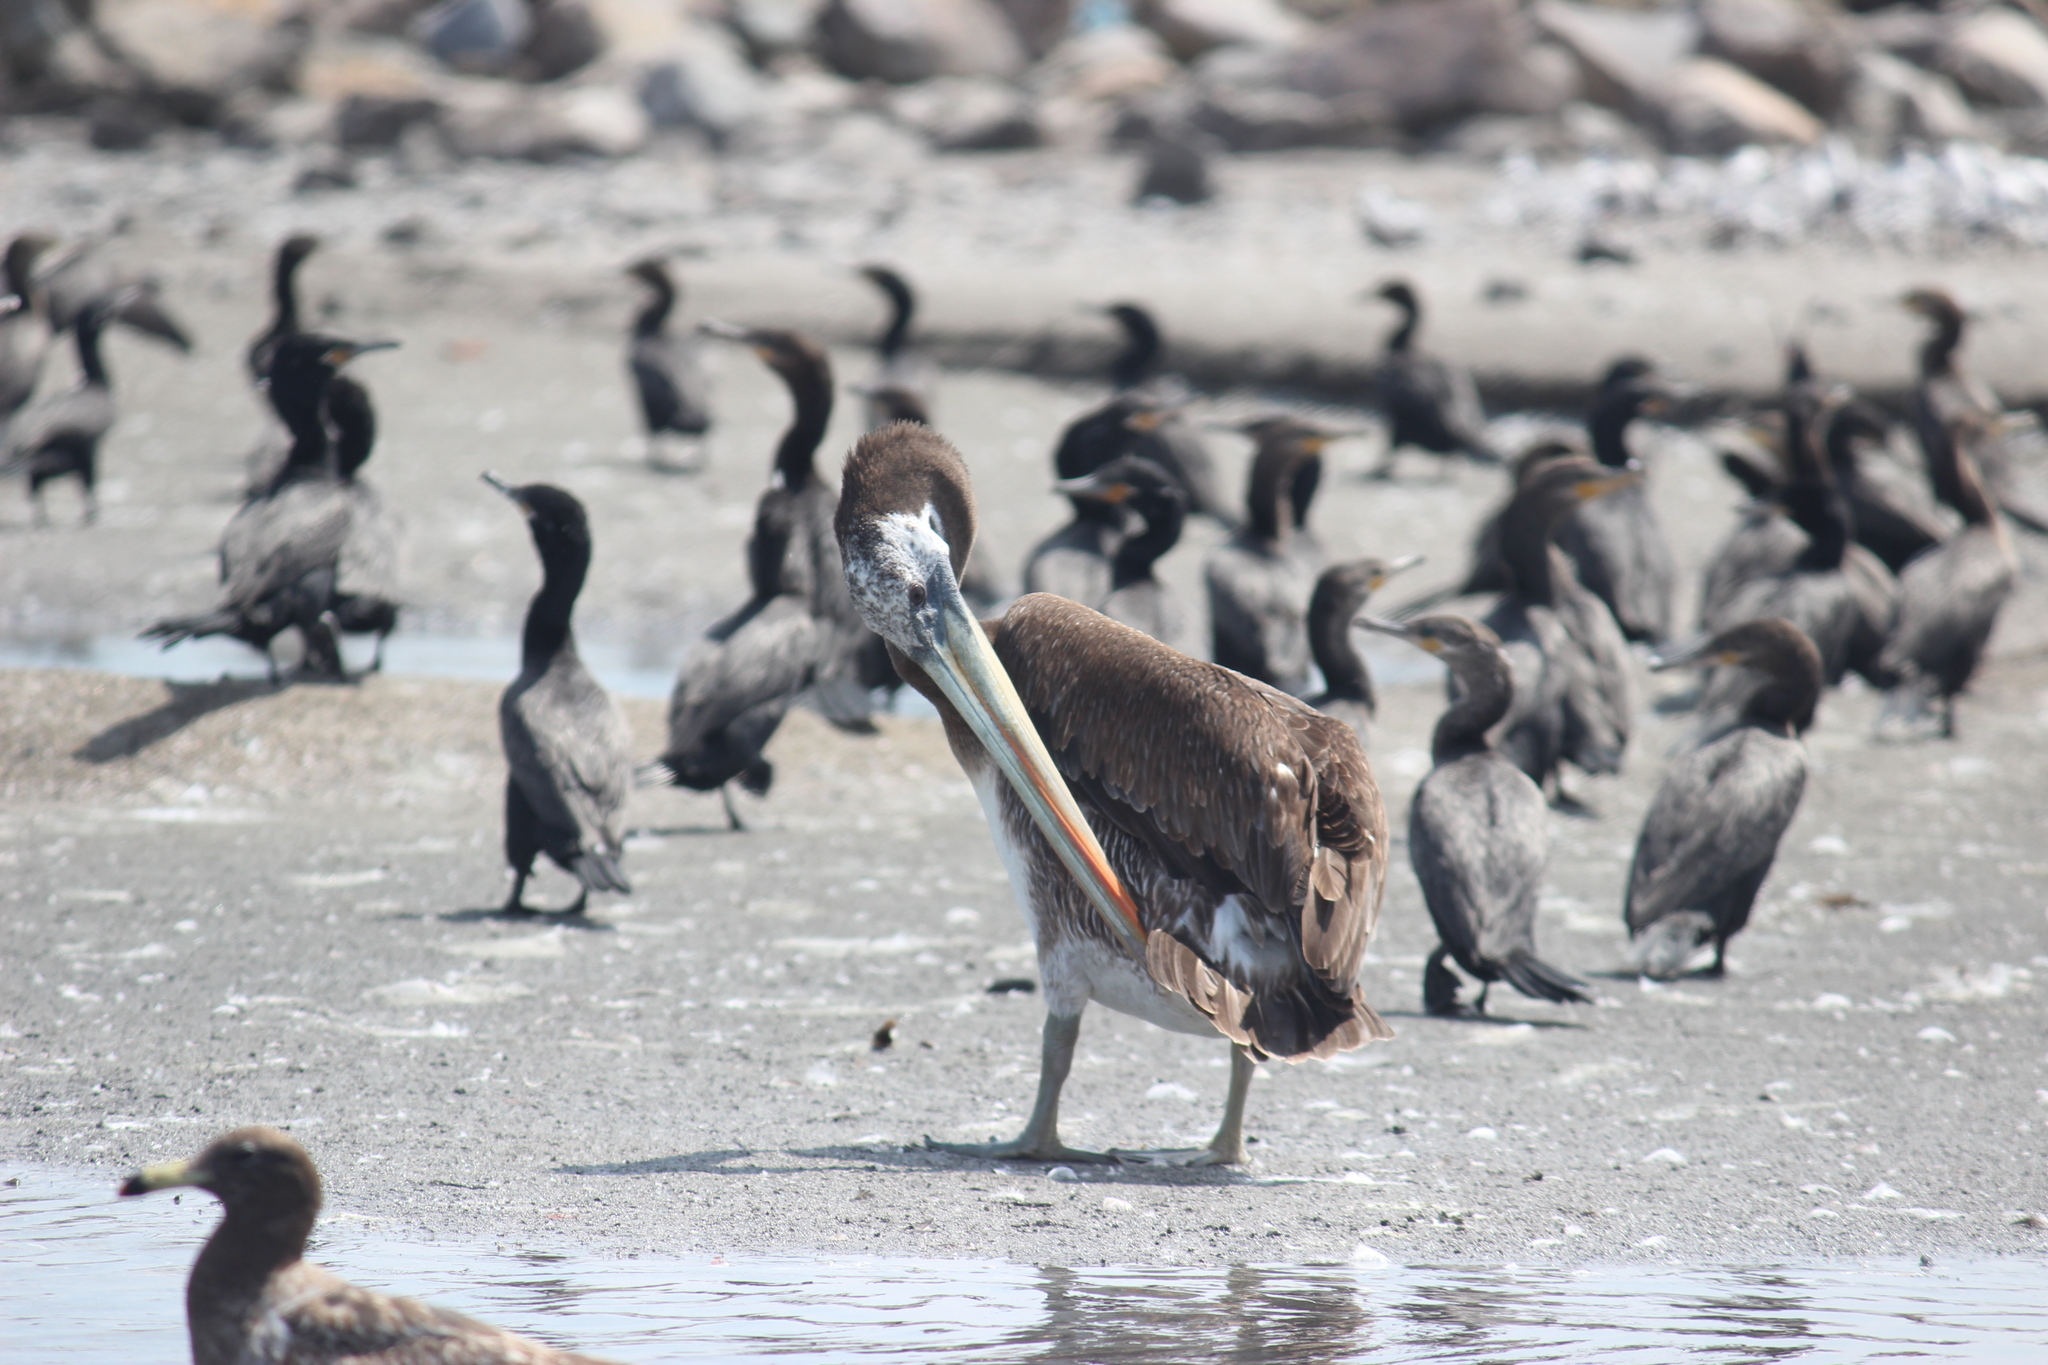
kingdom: Animalia
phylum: Chordata
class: Aves
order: Pelecaniformes
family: Pelecanidae
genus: Pelecanus
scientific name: Pelecanus thagus
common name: Peruvian pelican
